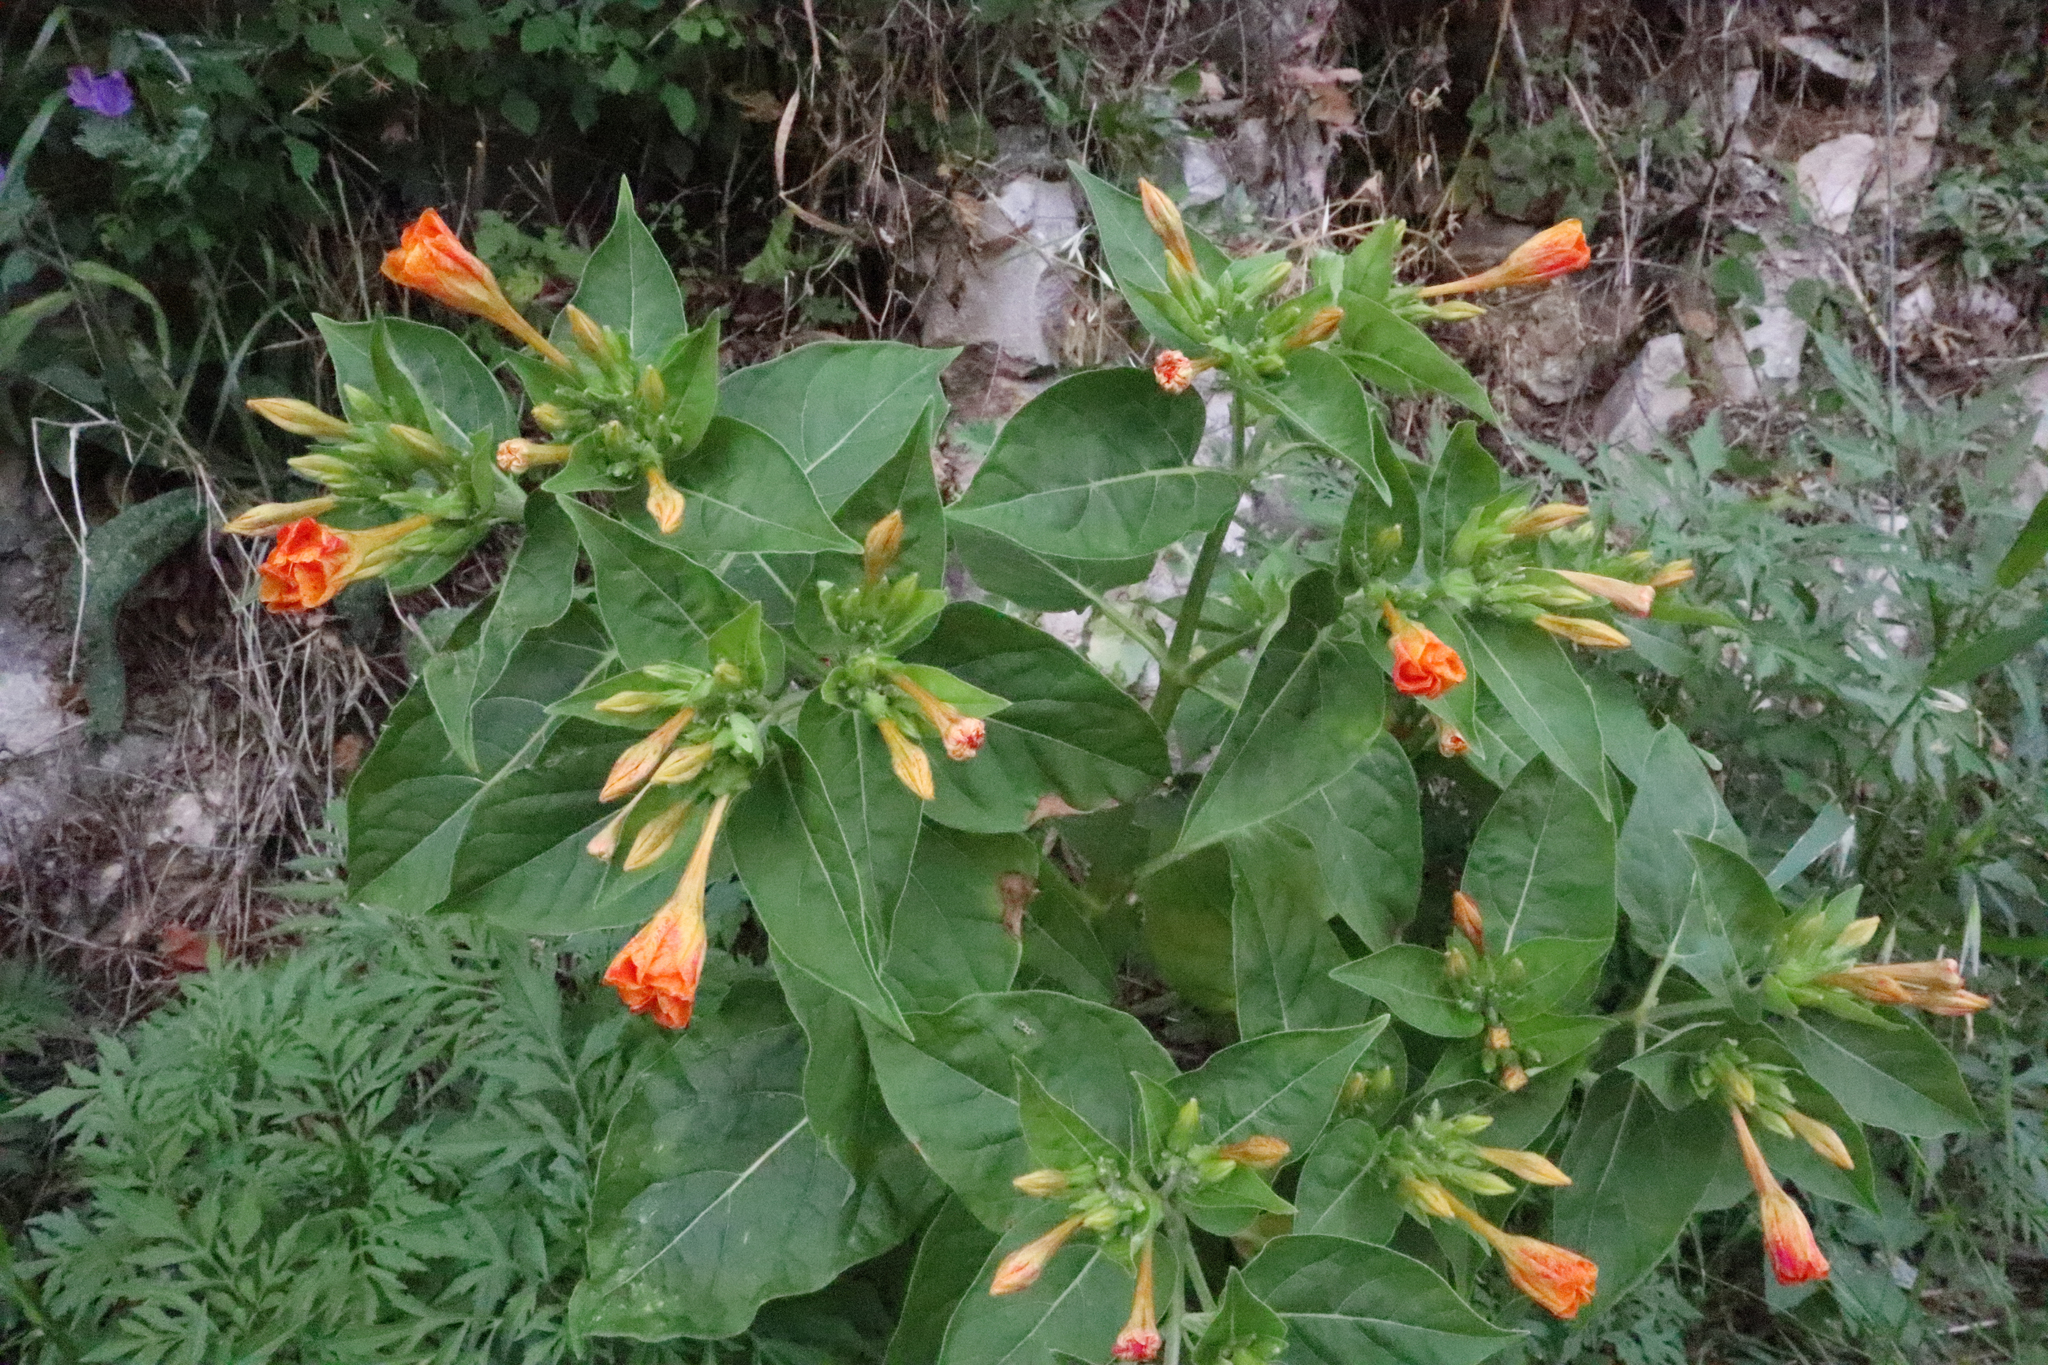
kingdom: Plantae
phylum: Tracheophyta
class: Magnoliopsida
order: Caryophyllales
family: Nyctaginaceae
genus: Mirabilis
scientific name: Mirabilis jalapa
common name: Marvel-of-peru
